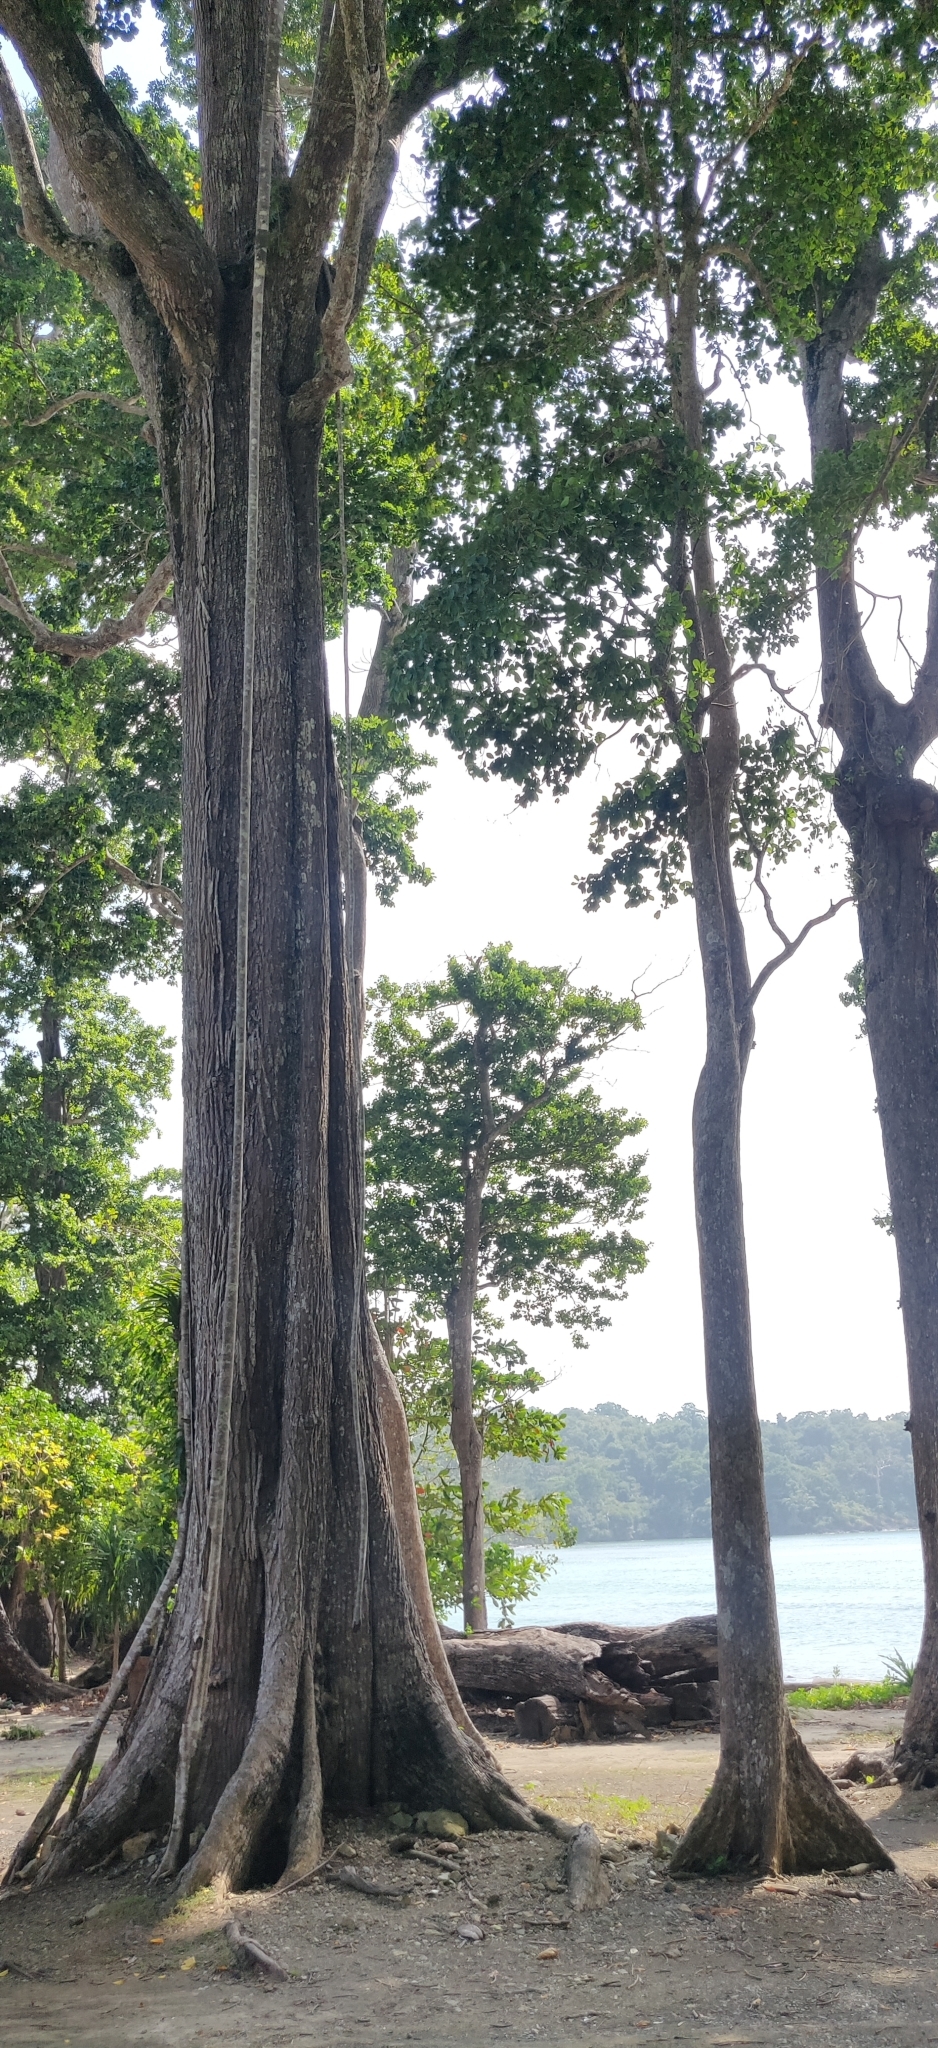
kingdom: Plantae
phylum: Tracheophyta
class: Magnoliopsida
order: Ericales
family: Sapotaceae
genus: Manilkara
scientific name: Manilkara littoralis
